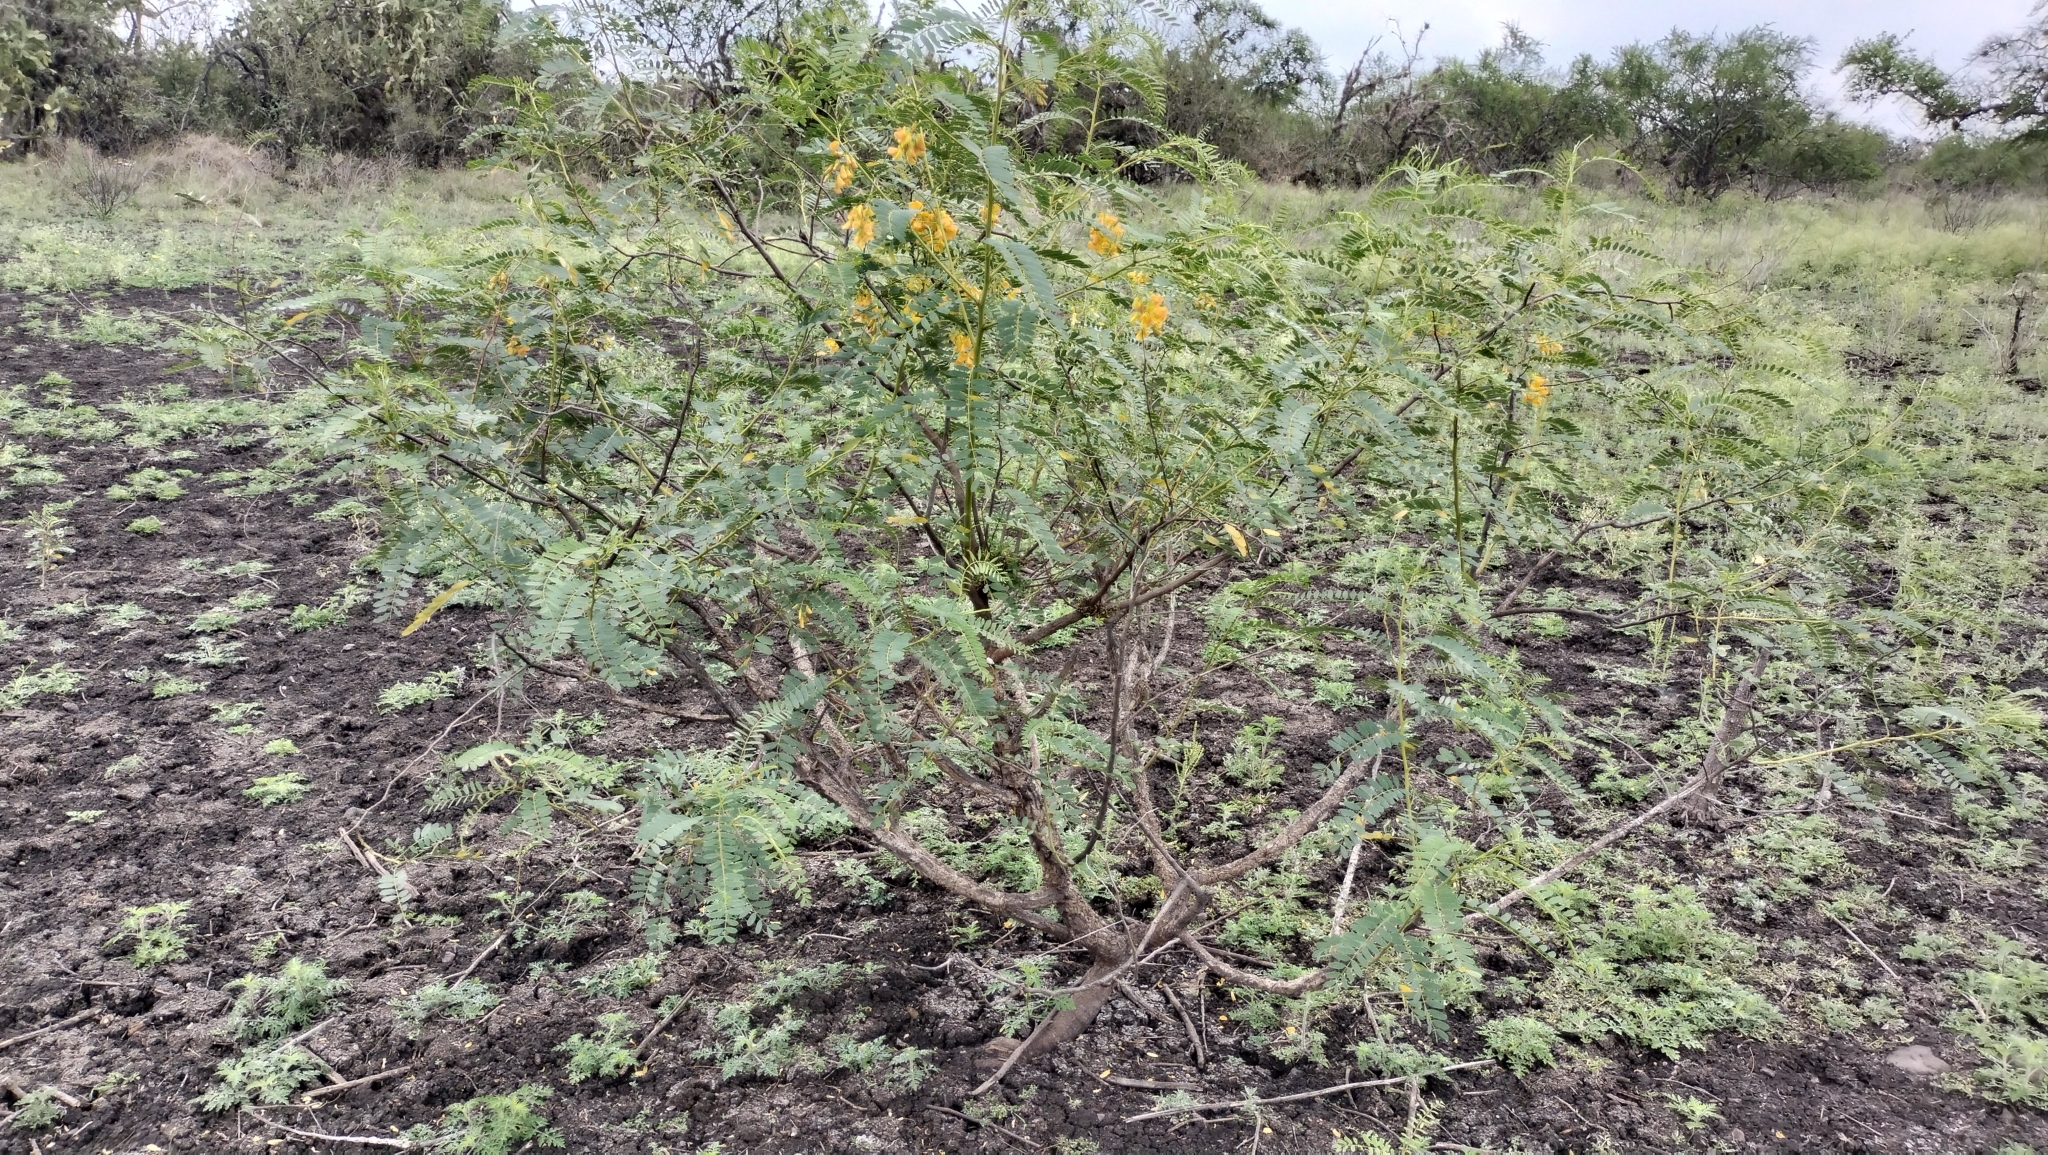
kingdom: Plantae
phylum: Tracheophyta
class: Magnoliopsida
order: Fabales
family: Fabaceae
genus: Sesbania
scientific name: Sesbania herbacea
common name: Bigpod sesbania
